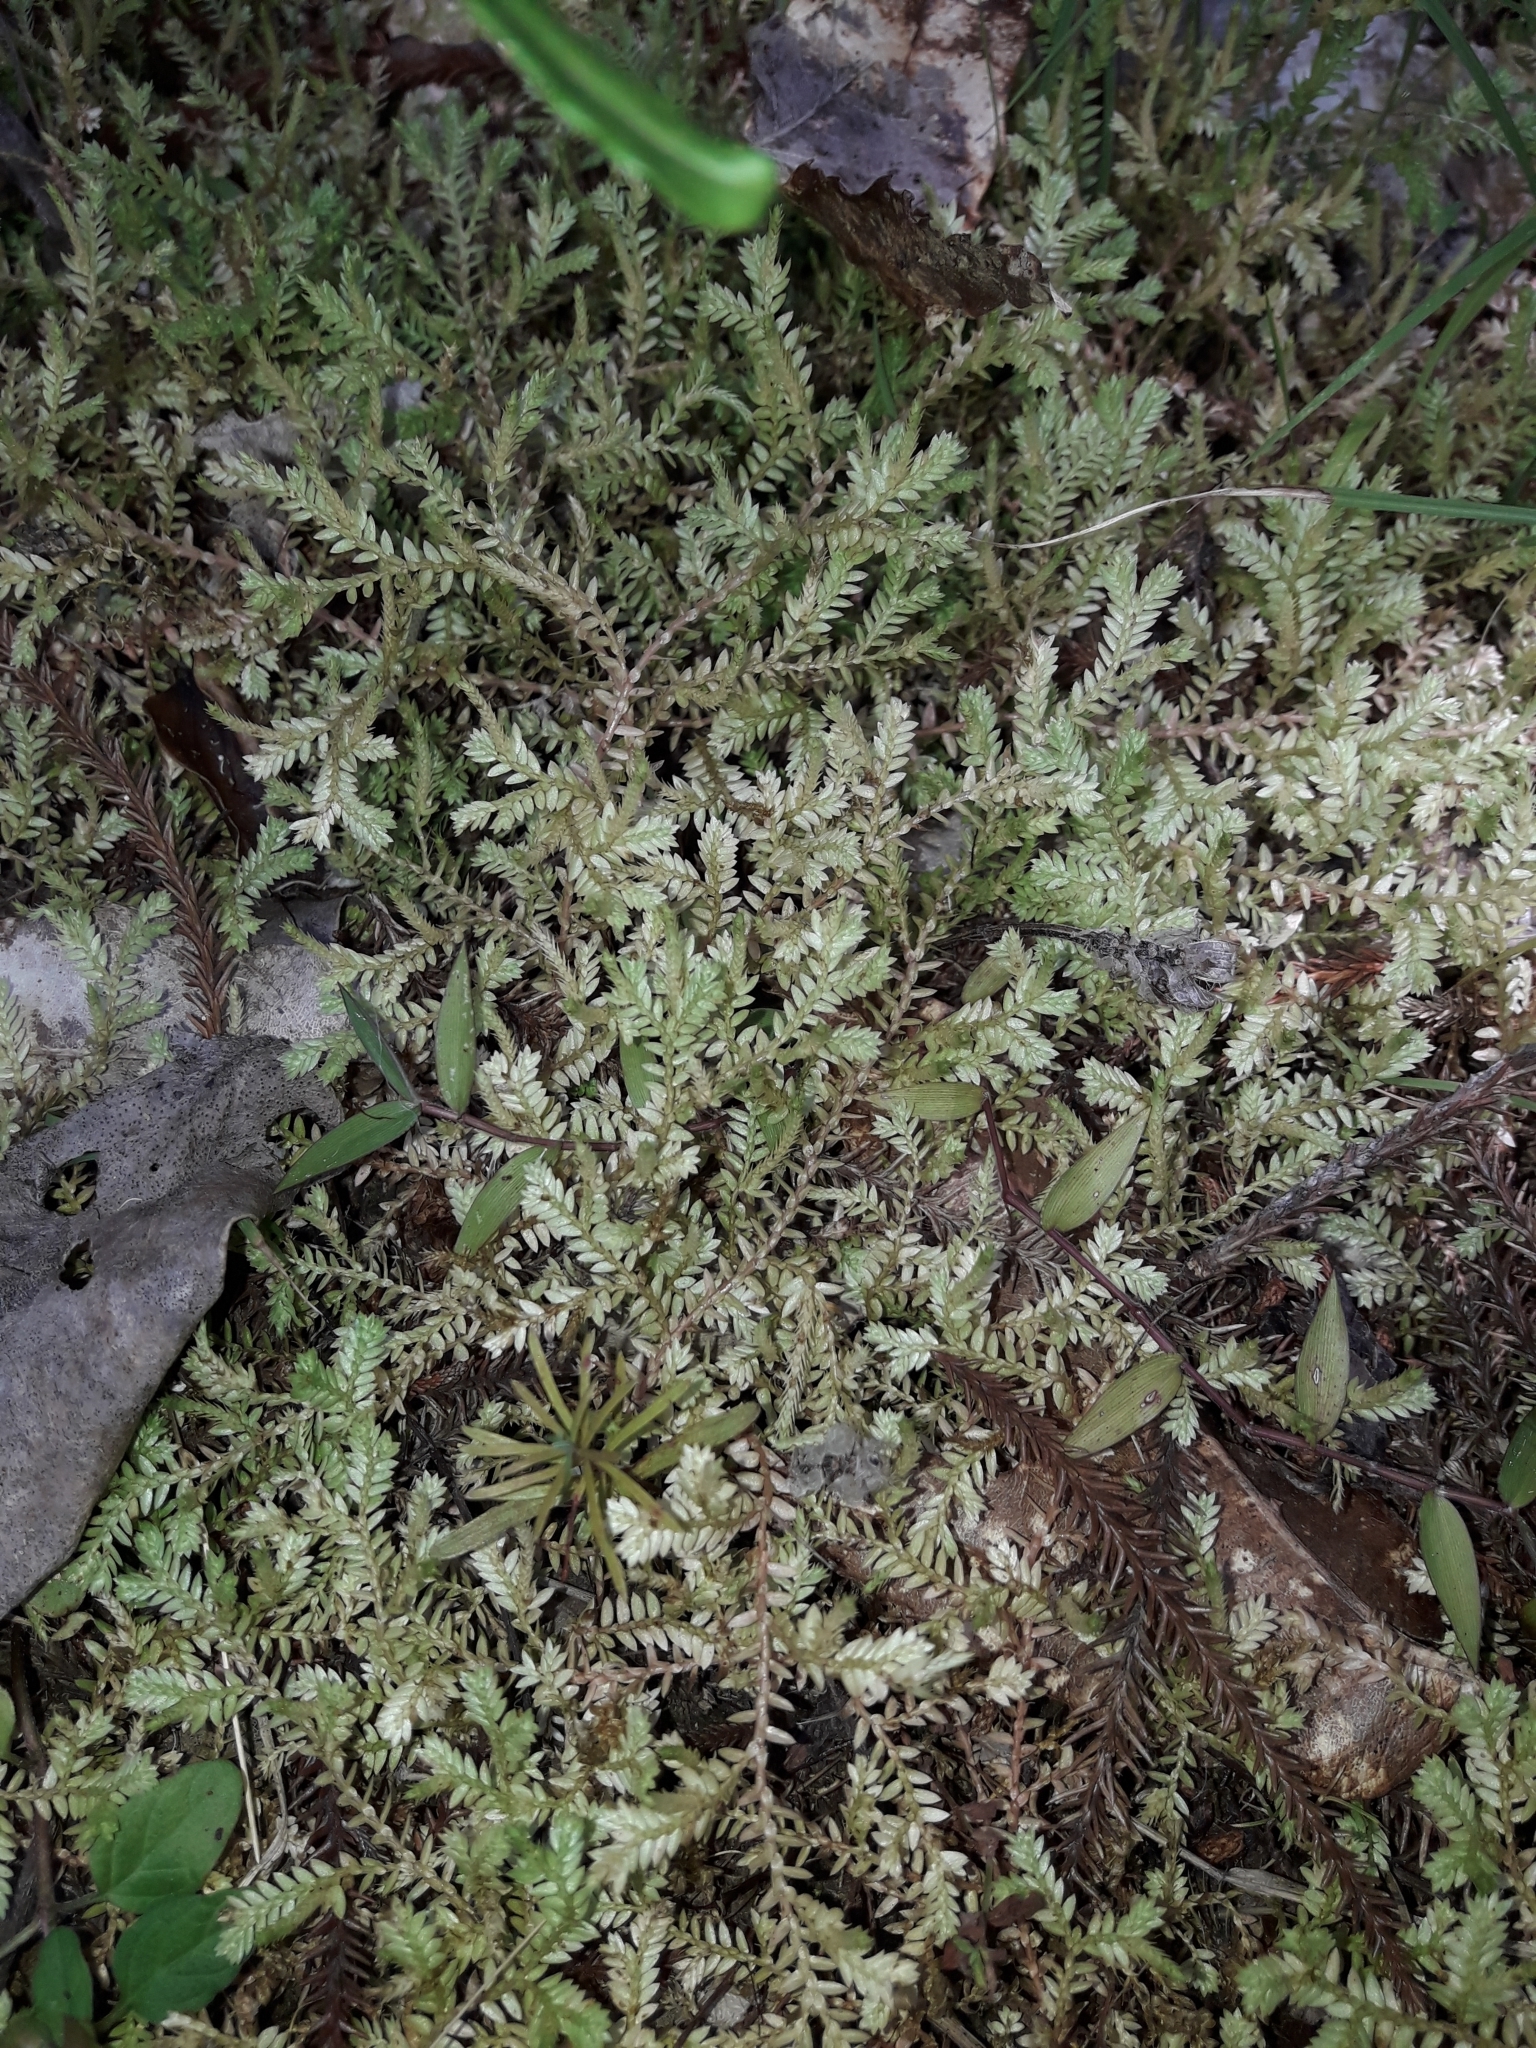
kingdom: Plantae
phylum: Tracheophyta
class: Lycopodiopsida
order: Selaginellales
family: Selaginellaceae
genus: Selaginella
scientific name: Selaginella kraussiana
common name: Krauss' spikemoss
